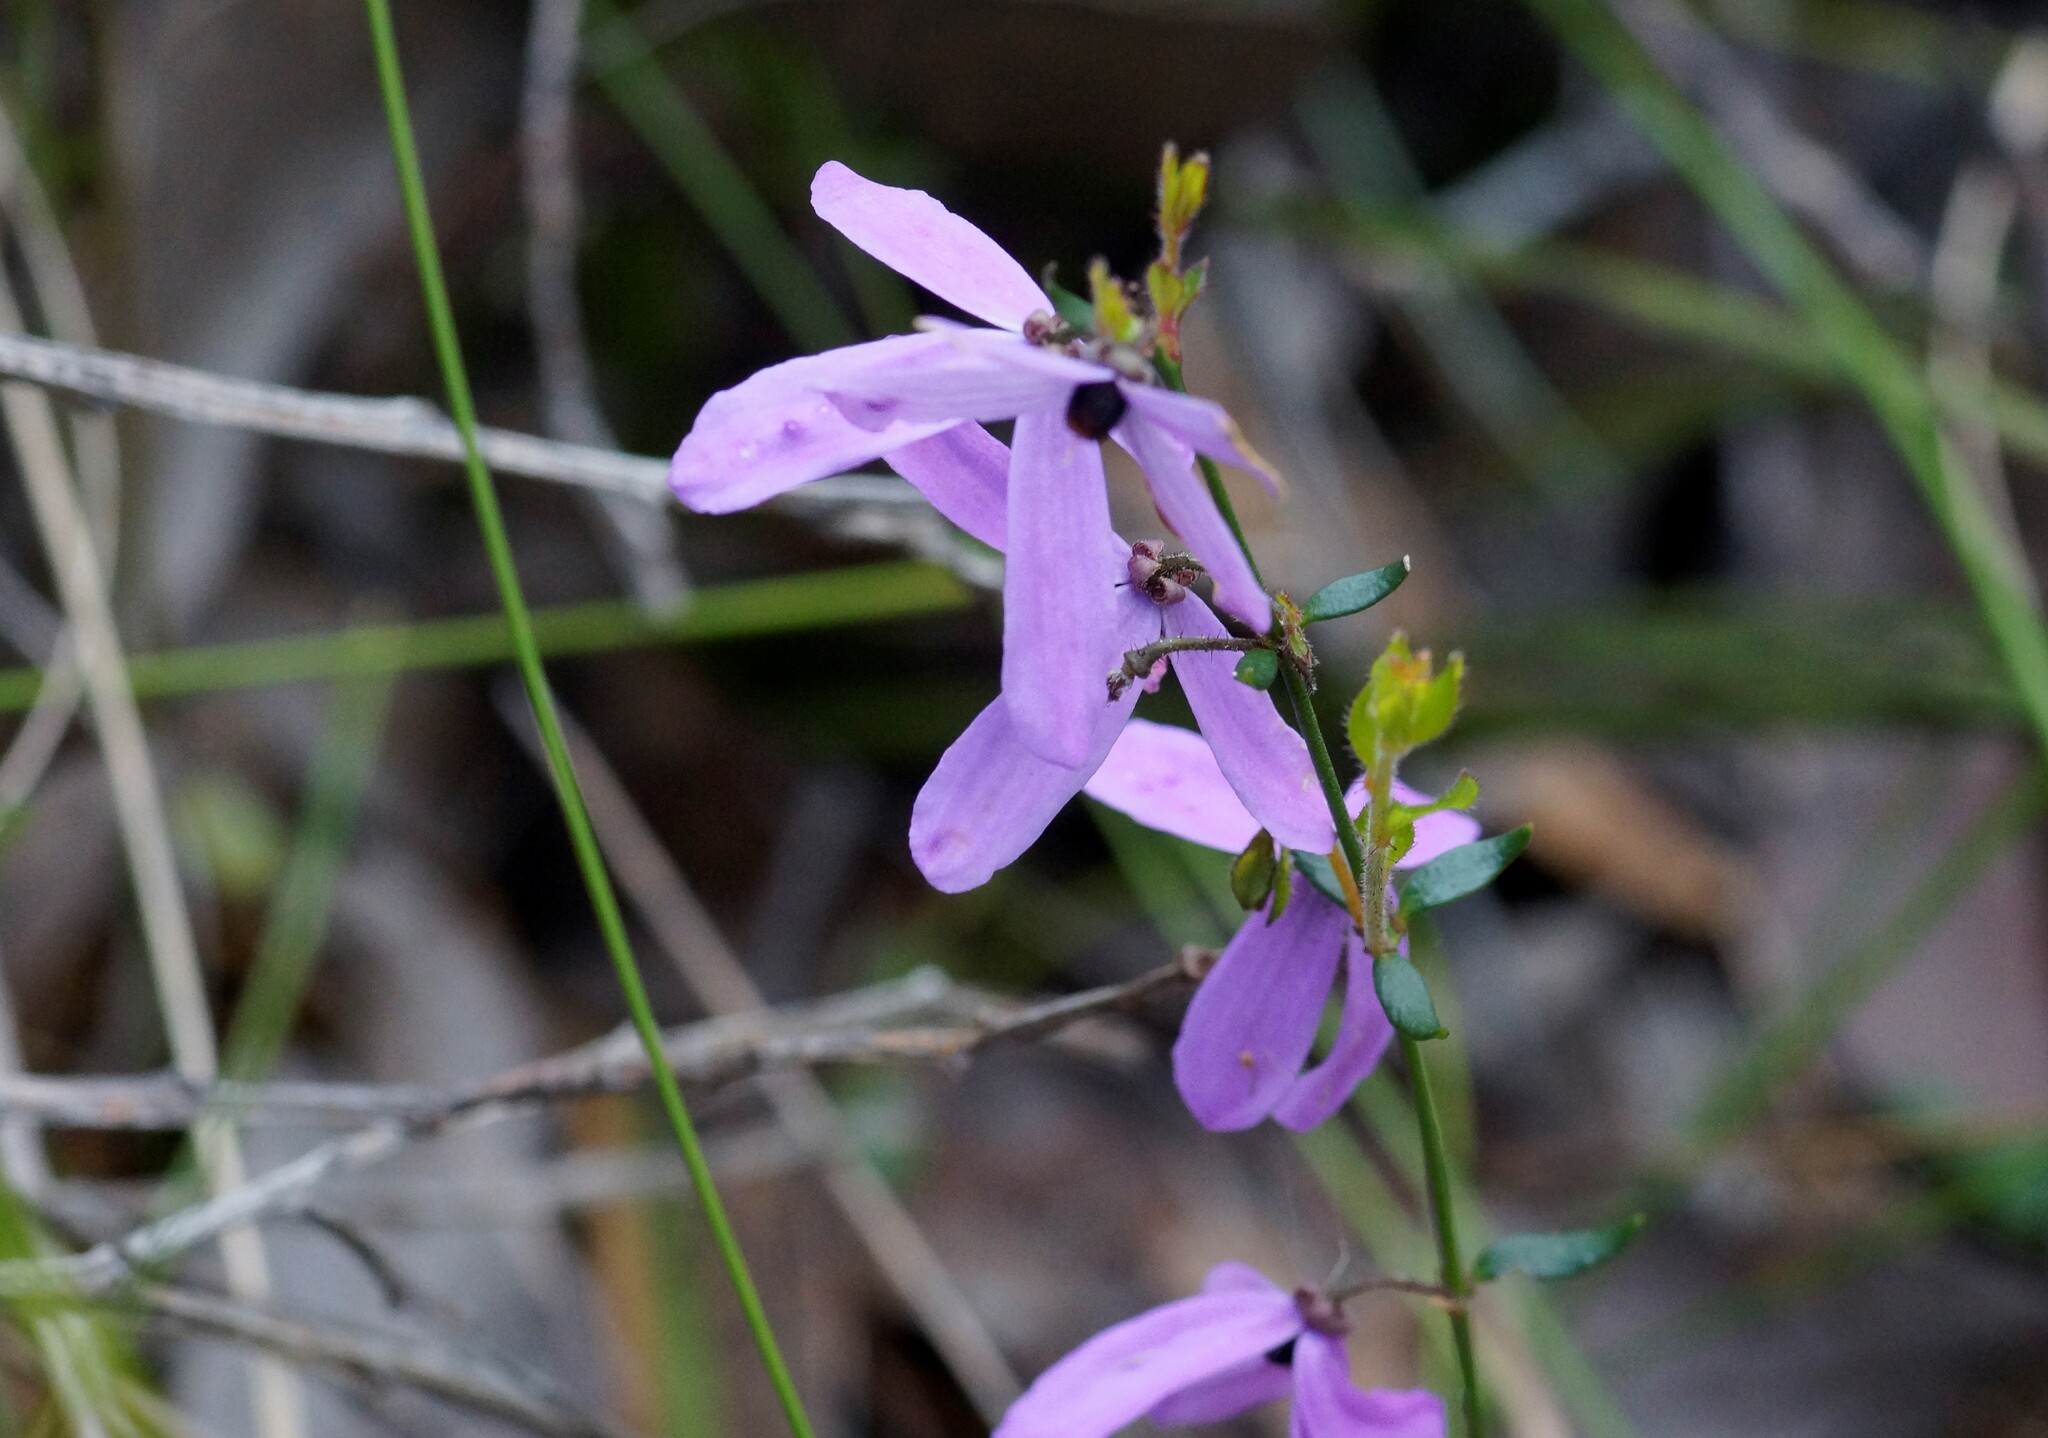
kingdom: Plantae
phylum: Tracheophyta
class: Magnoliopsida
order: Oxalidales
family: Elaeocarpaceae
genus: Tetratheca
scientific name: Tetratheca ciliata
